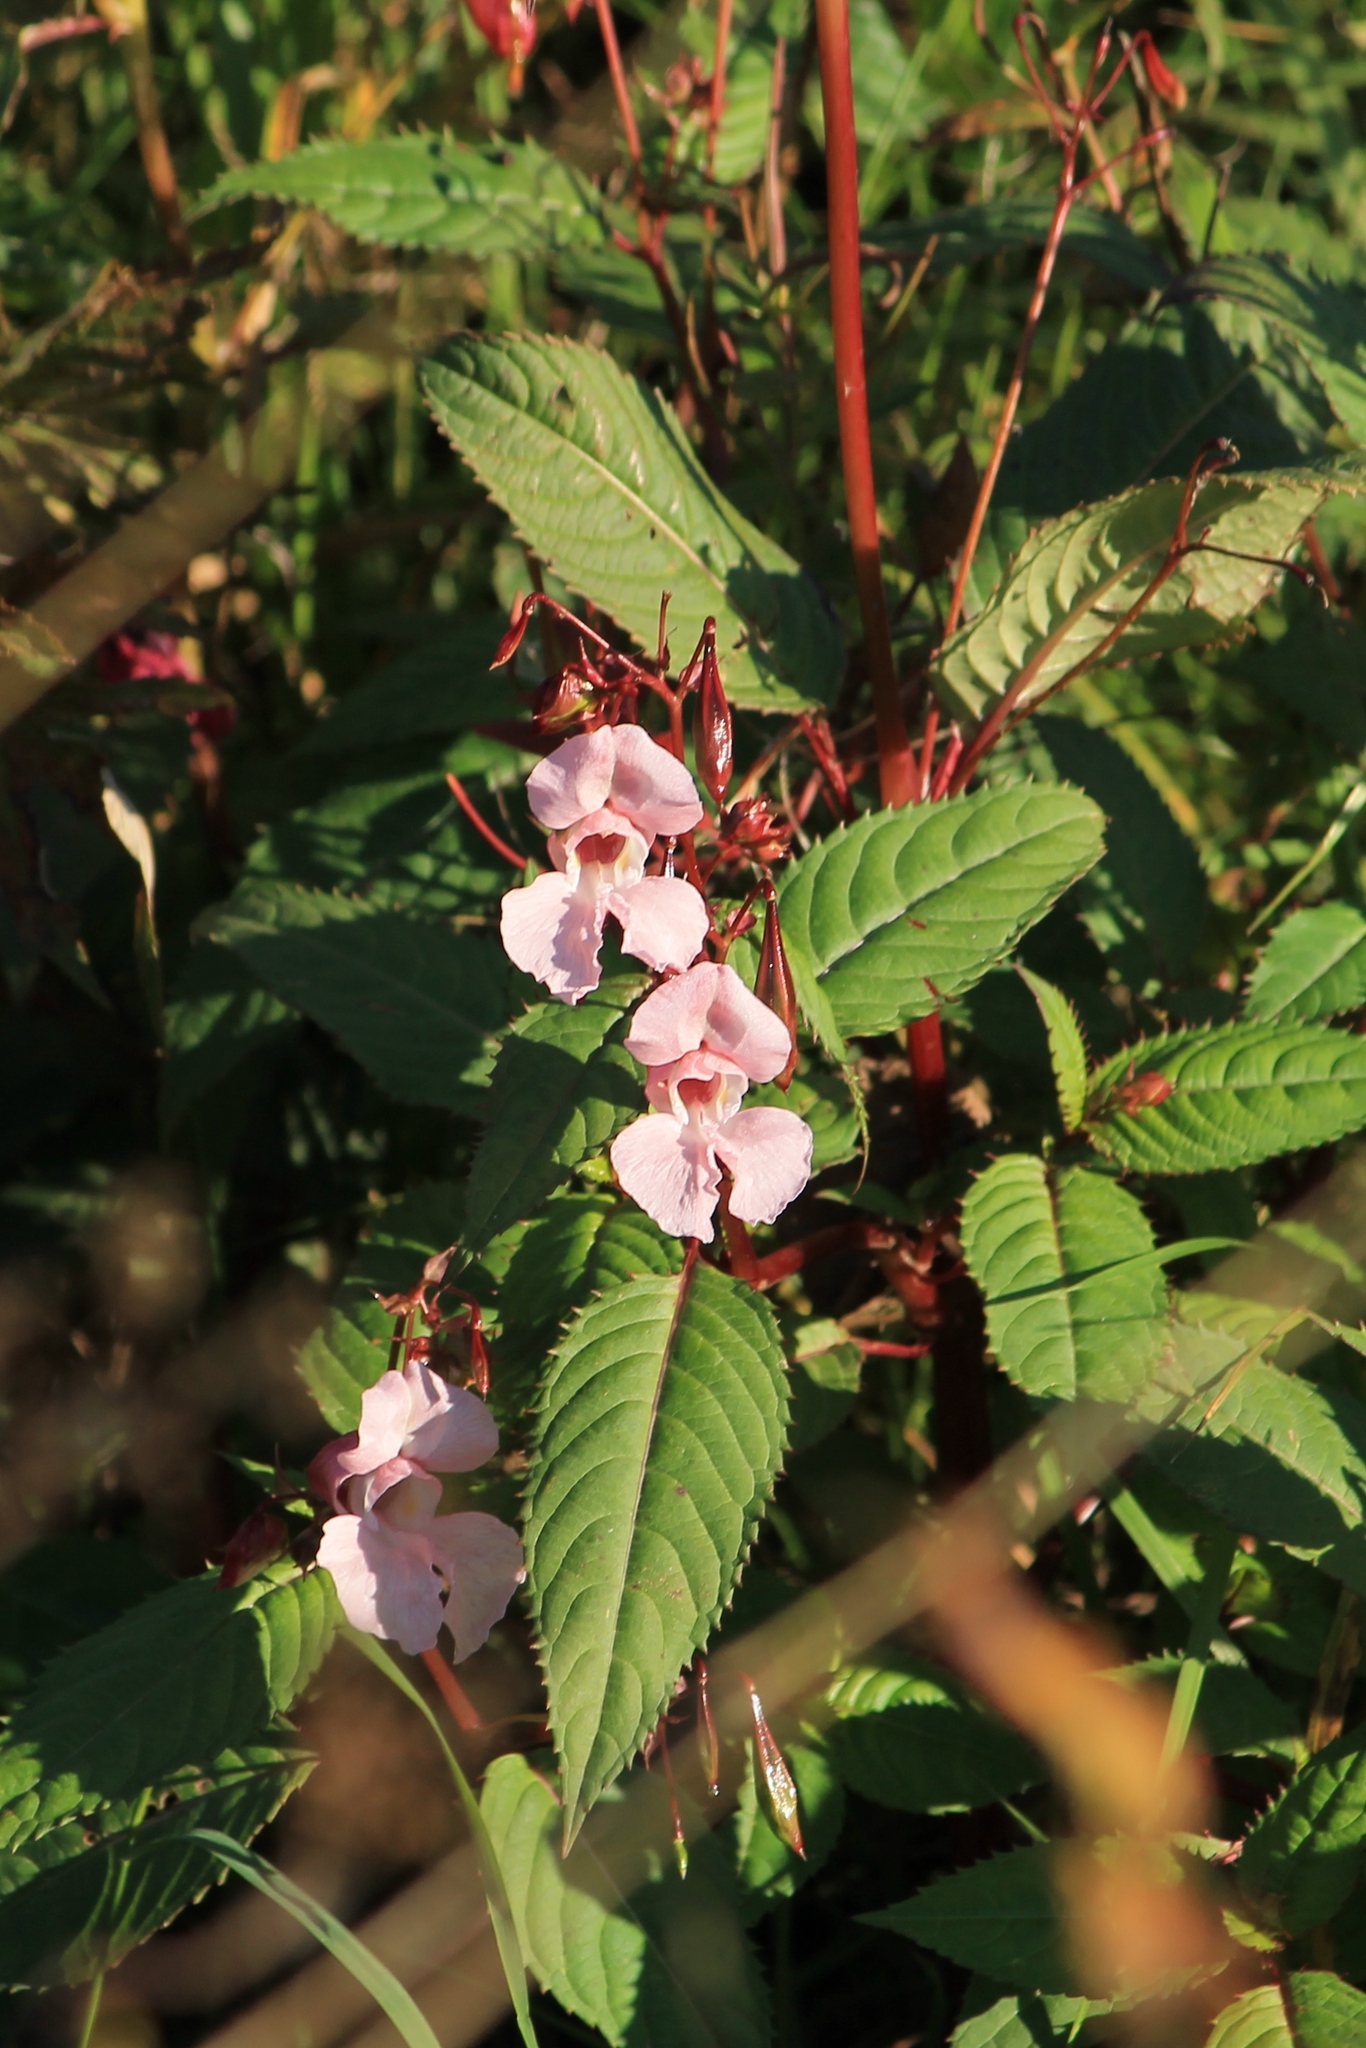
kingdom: Plantae
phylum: Tracheophyta
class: Magnoliopsida
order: Ericales
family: Balsaminaceae
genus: Impatiens
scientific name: Impatiens glandulifera
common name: Himalayan balsam
